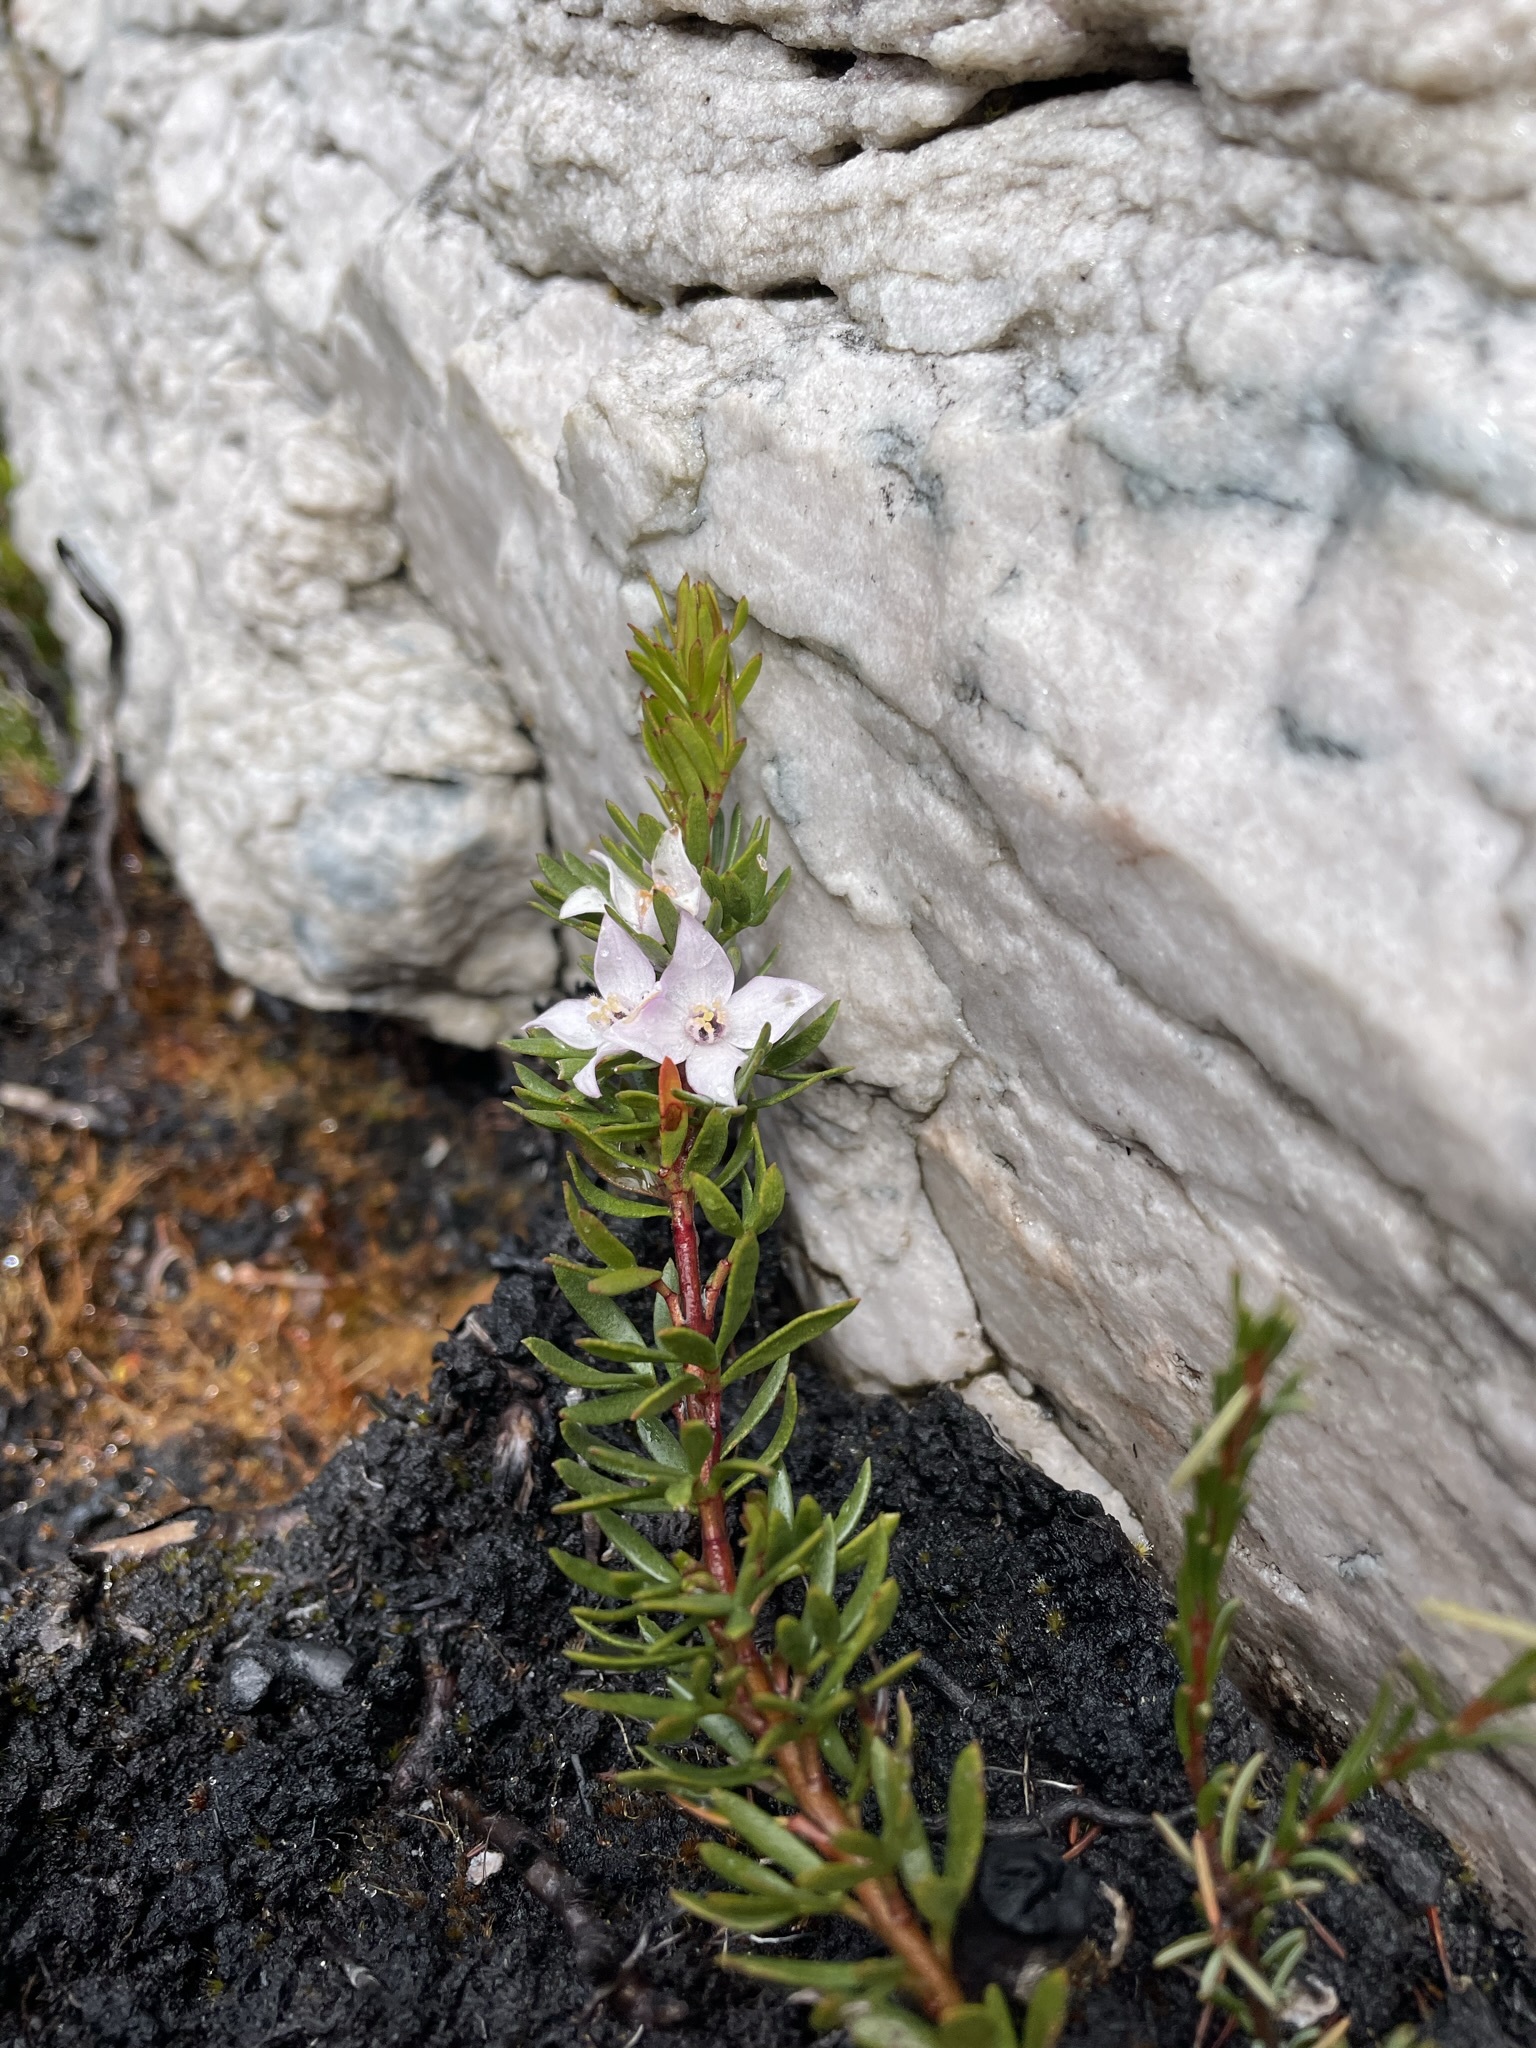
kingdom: Plantae
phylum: Tracheophyta
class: Magnoliopsida
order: Sapindales
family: Rutaceae
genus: Boronia
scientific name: Boronia citriodora
